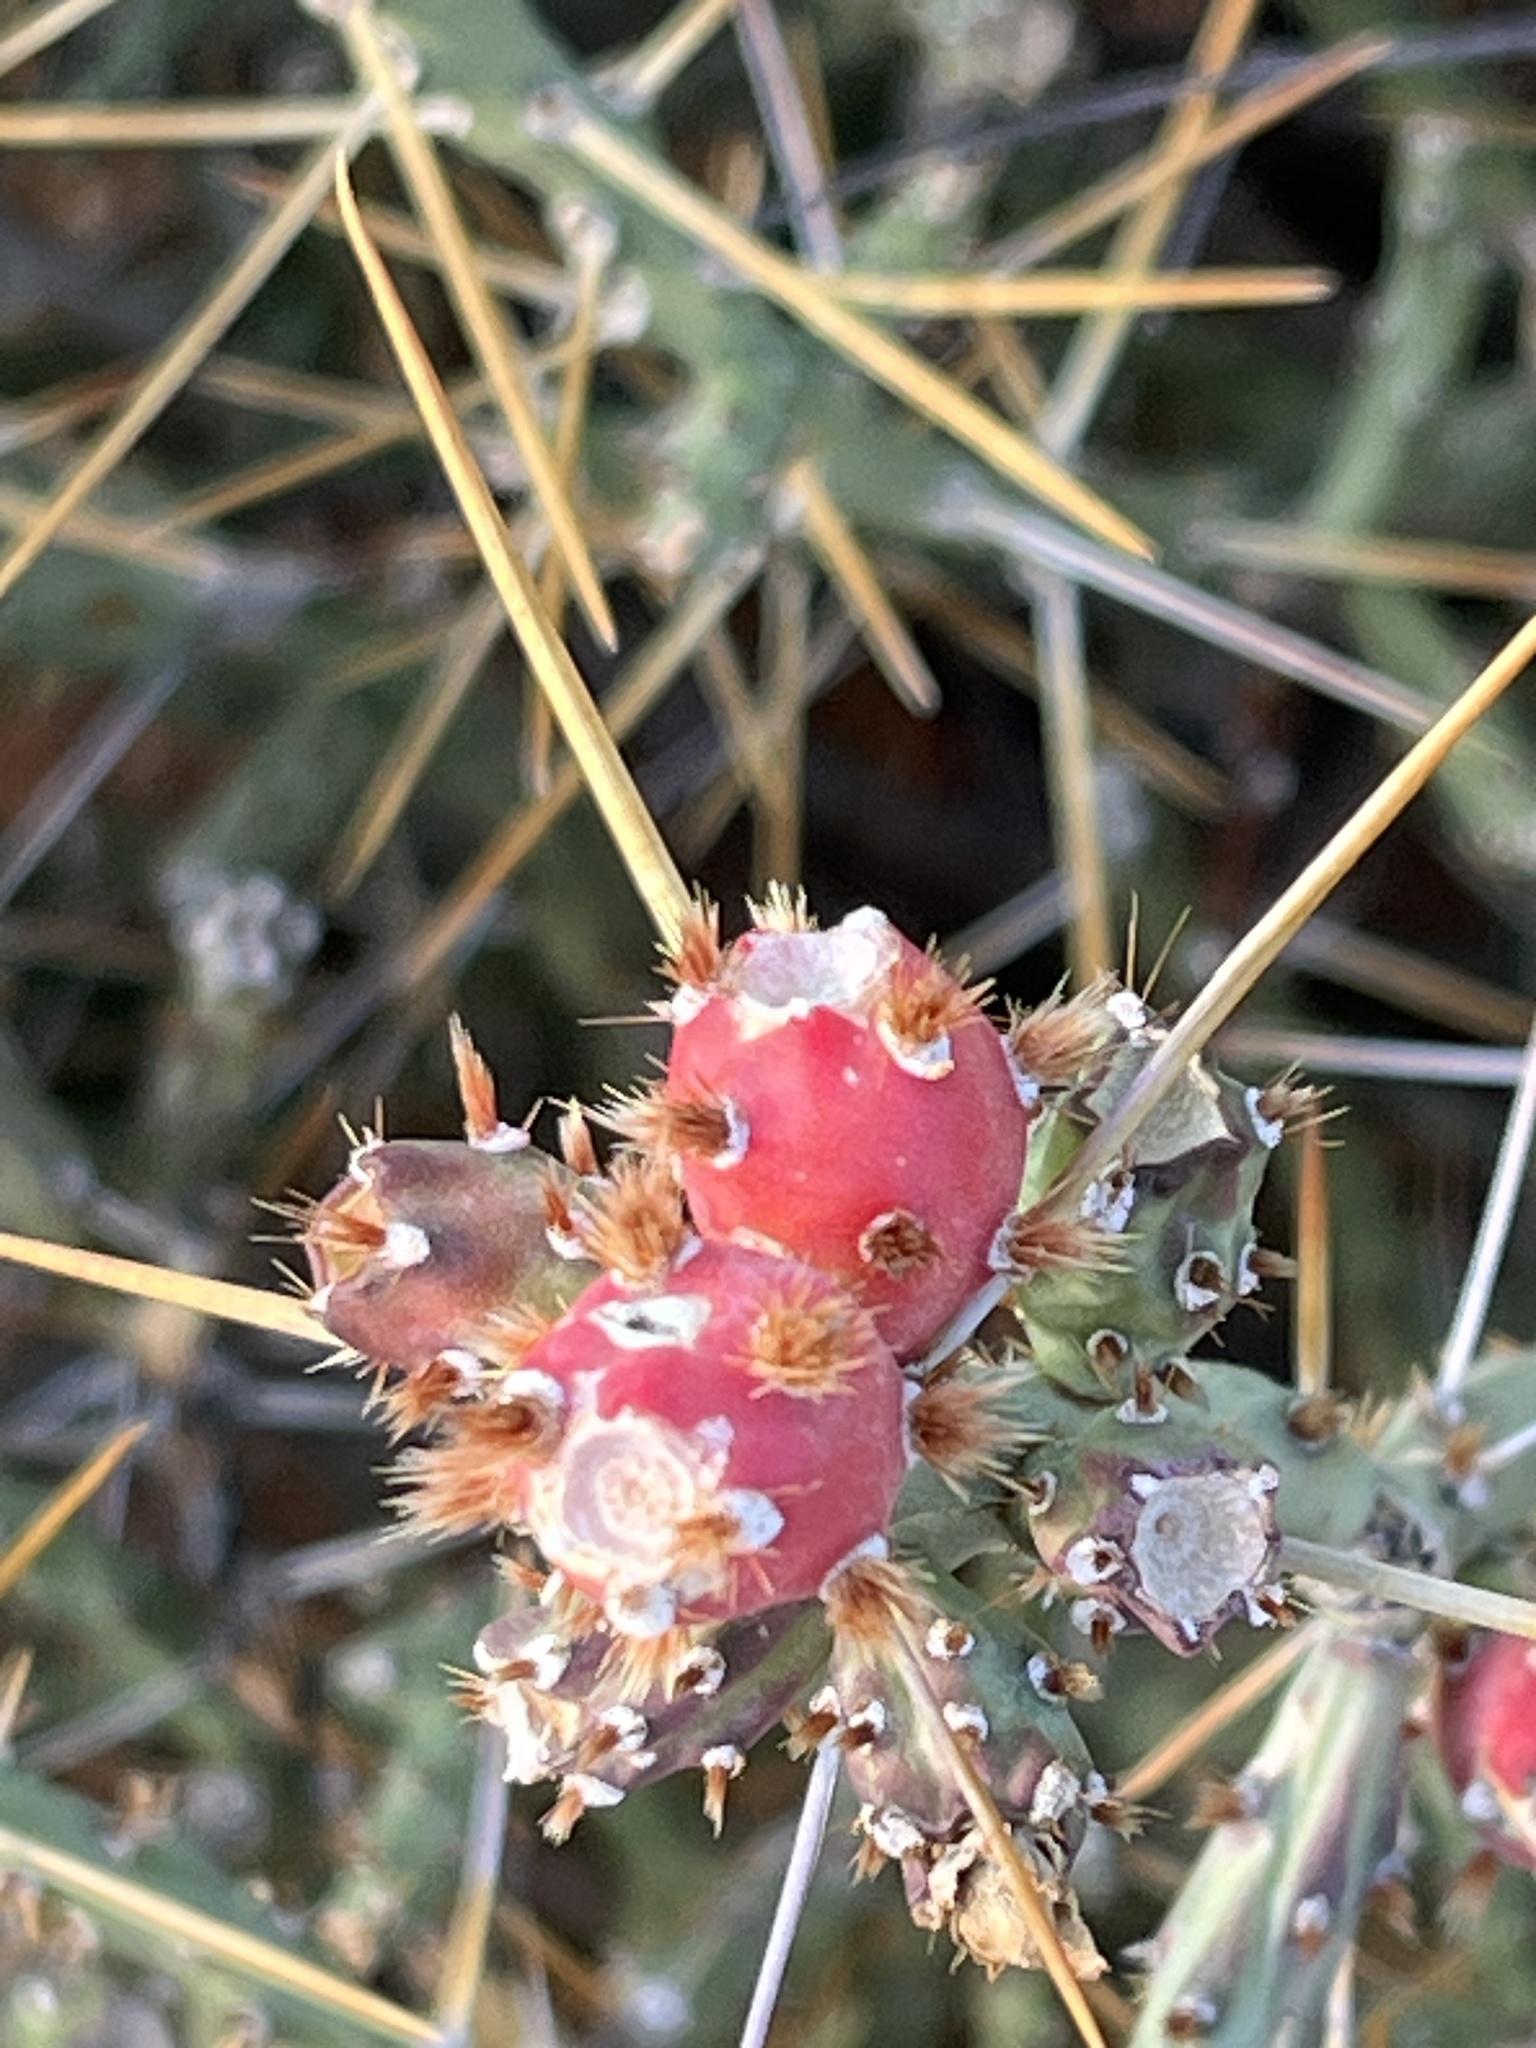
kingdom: Plantae
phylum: Tracheophyta
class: Magnoliopsida
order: Caryophyllales
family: Cactaceae
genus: Cylindropuntia
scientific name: Cylindropuntia leptocaulis
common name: Christmas cactus
